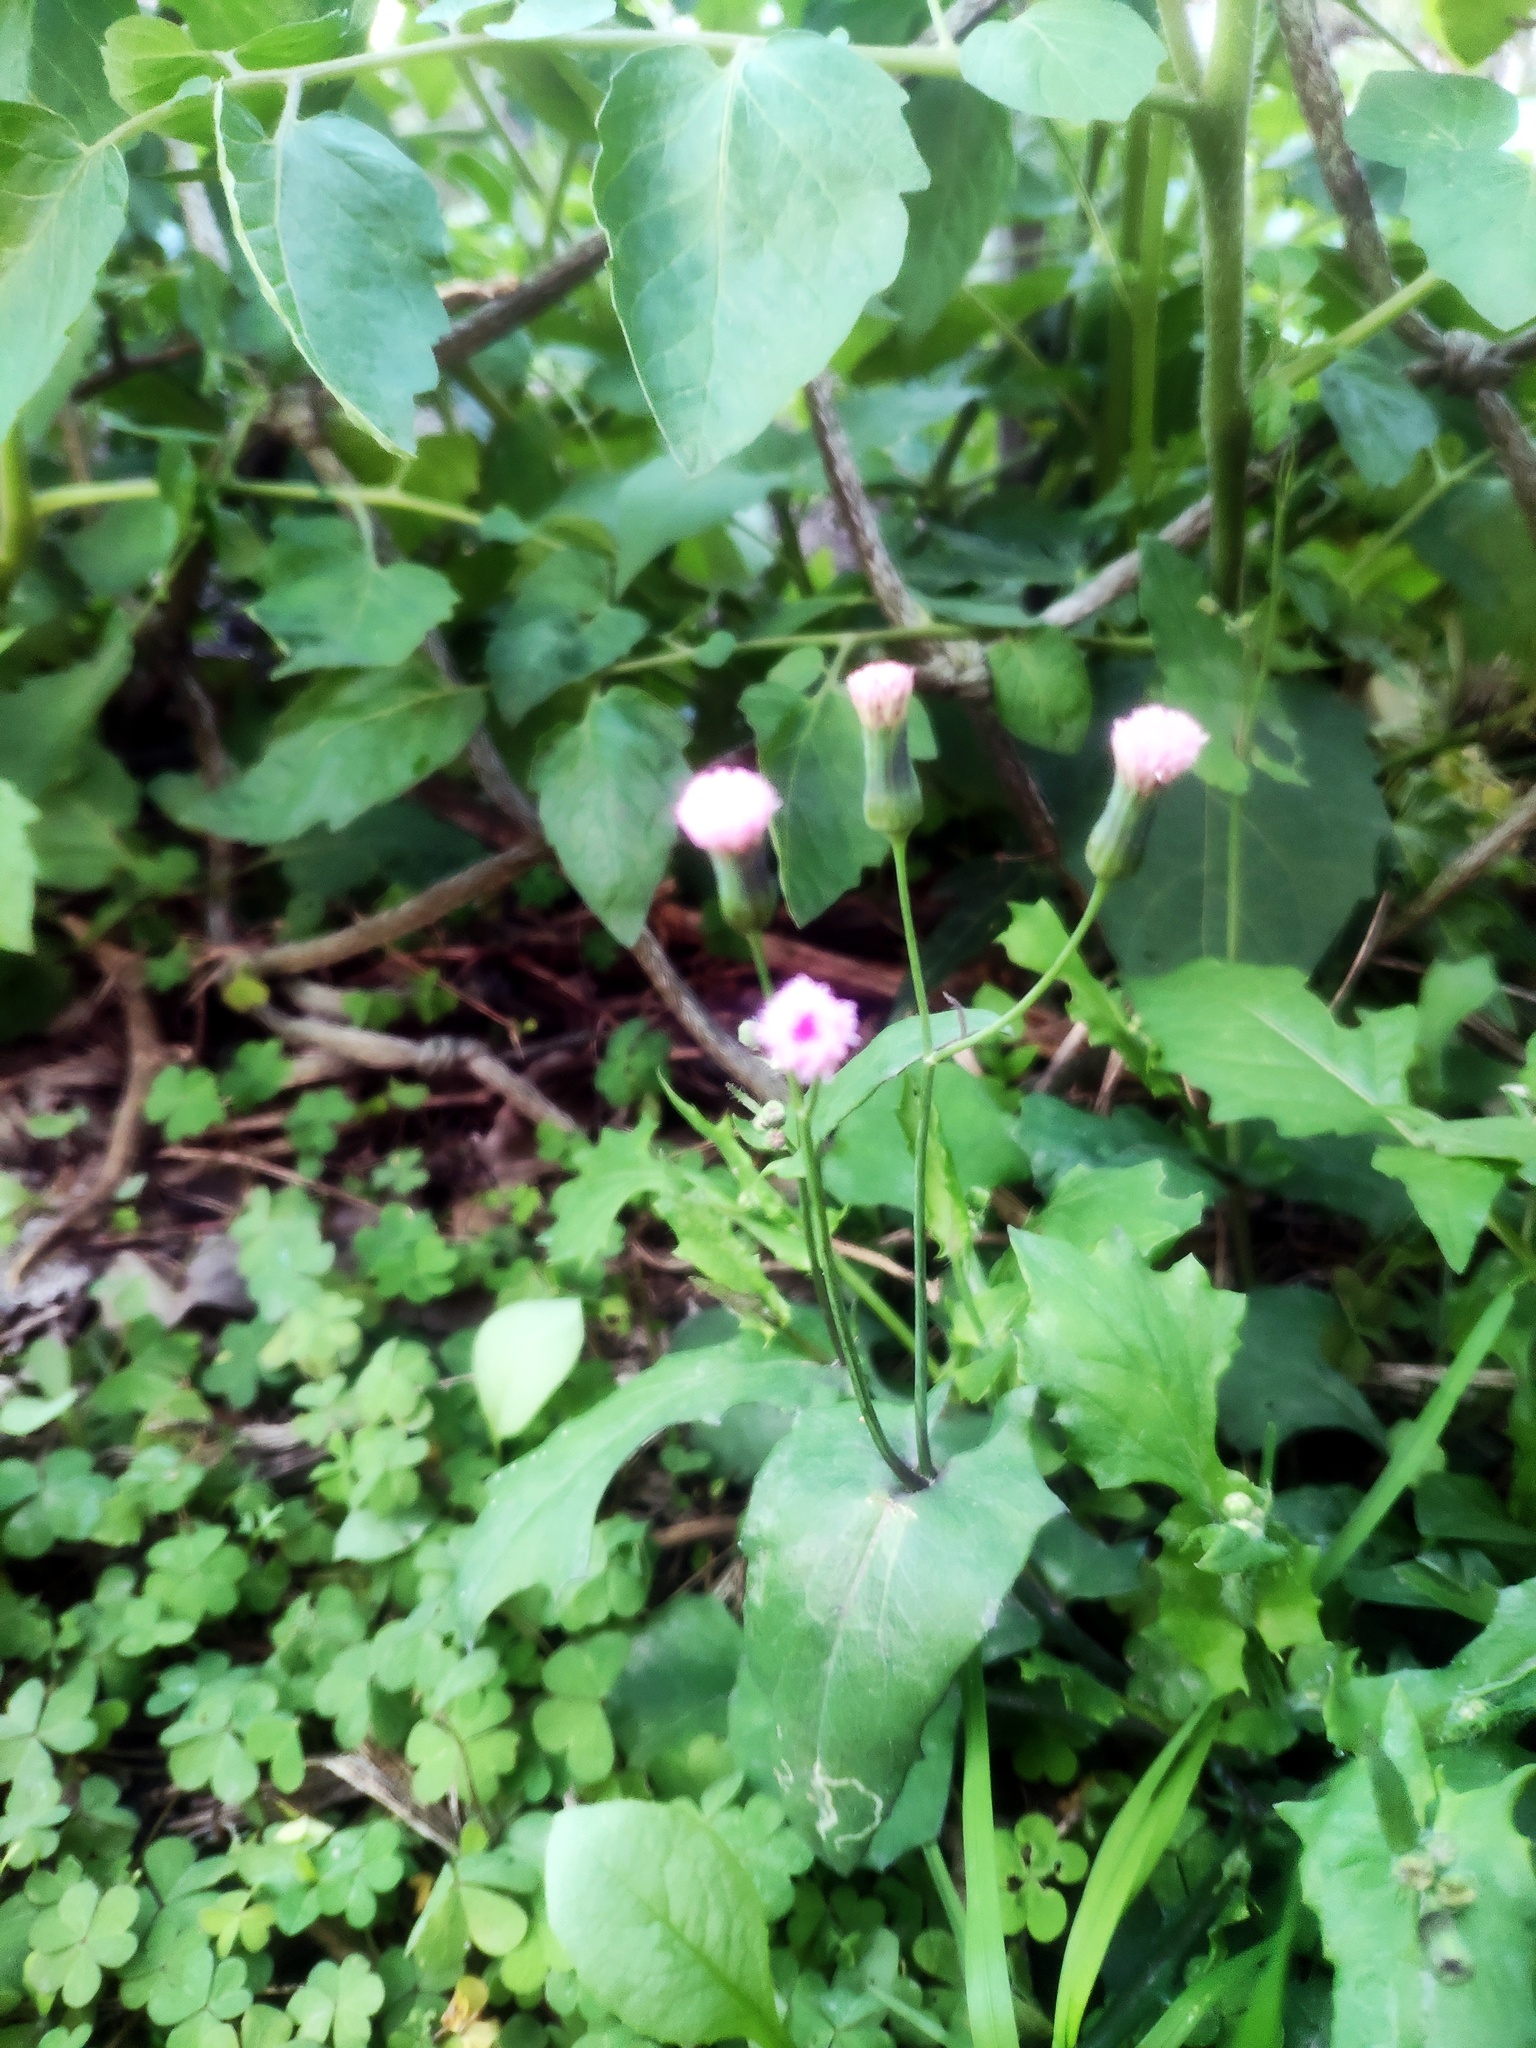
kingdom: Plantae
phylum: Tracheophyta
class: Magnoliopsida
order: Asterales
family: Asteraceae
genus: Emilia
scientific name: Emilia javanica
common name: Tassel-flower
